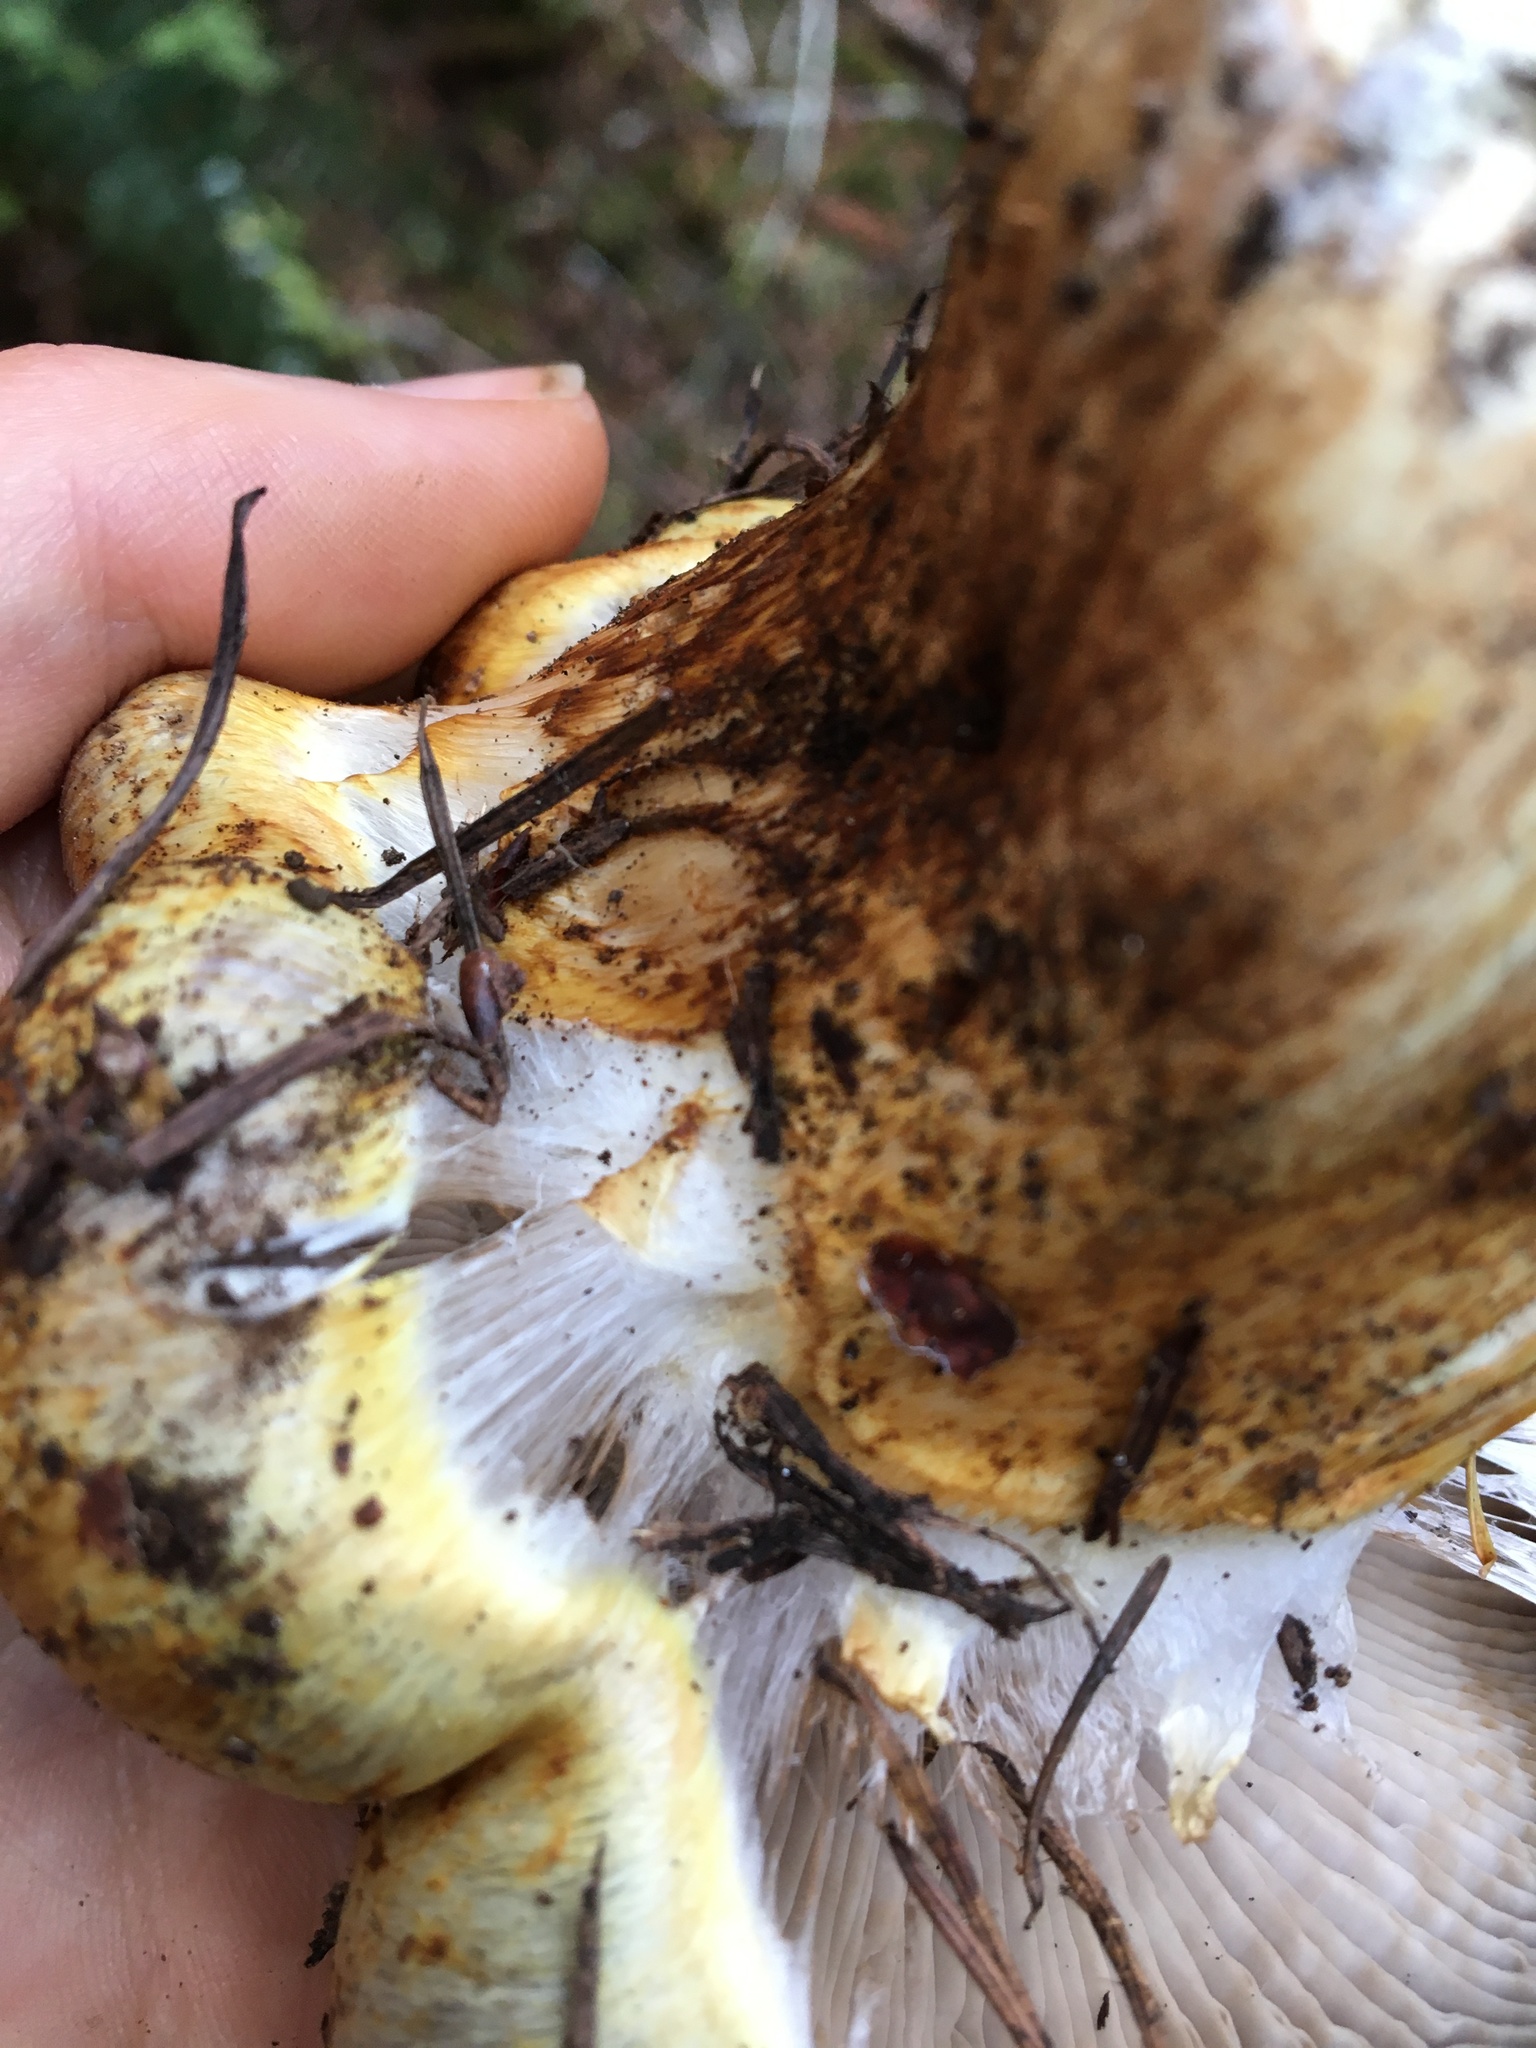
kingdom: Fungi
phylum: Basidiomycota
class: Agaricomycetes
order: Agaricales
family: Cortinariaceae
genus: Phlegmacium
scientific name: Phlegmacium ponderosum
